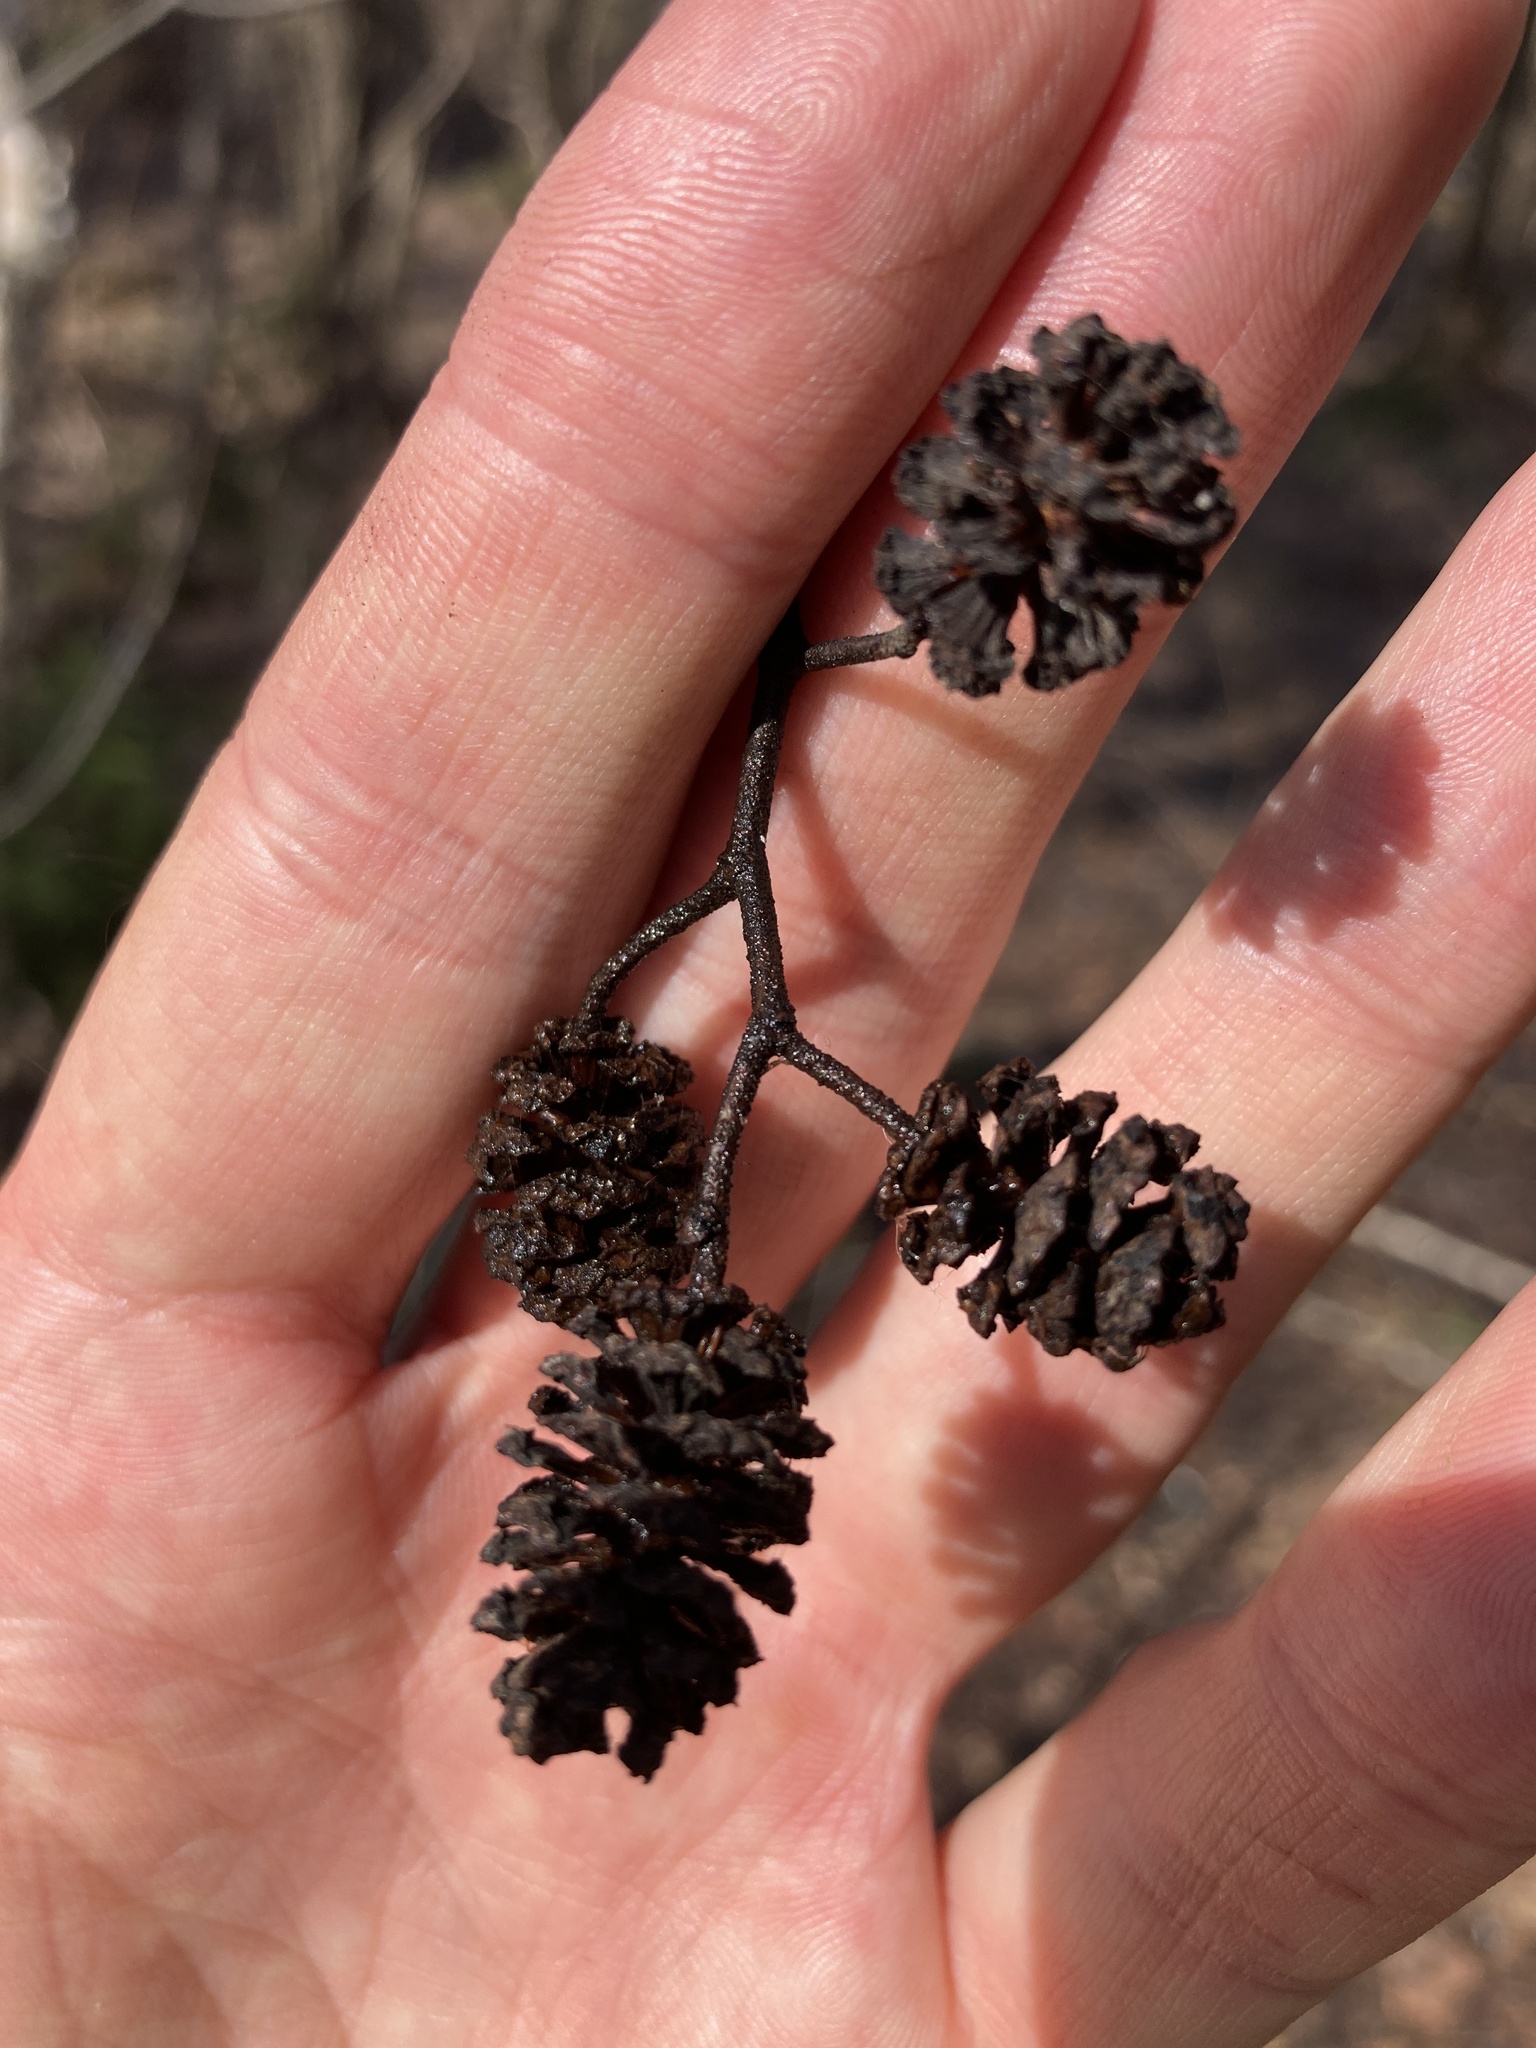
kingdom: Plantae
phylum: Tracheophyta
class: Magnoliopsida
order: Fagales
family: Betulaceae
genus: Alnus
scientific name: Alnus glutinosa
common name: Black alder
